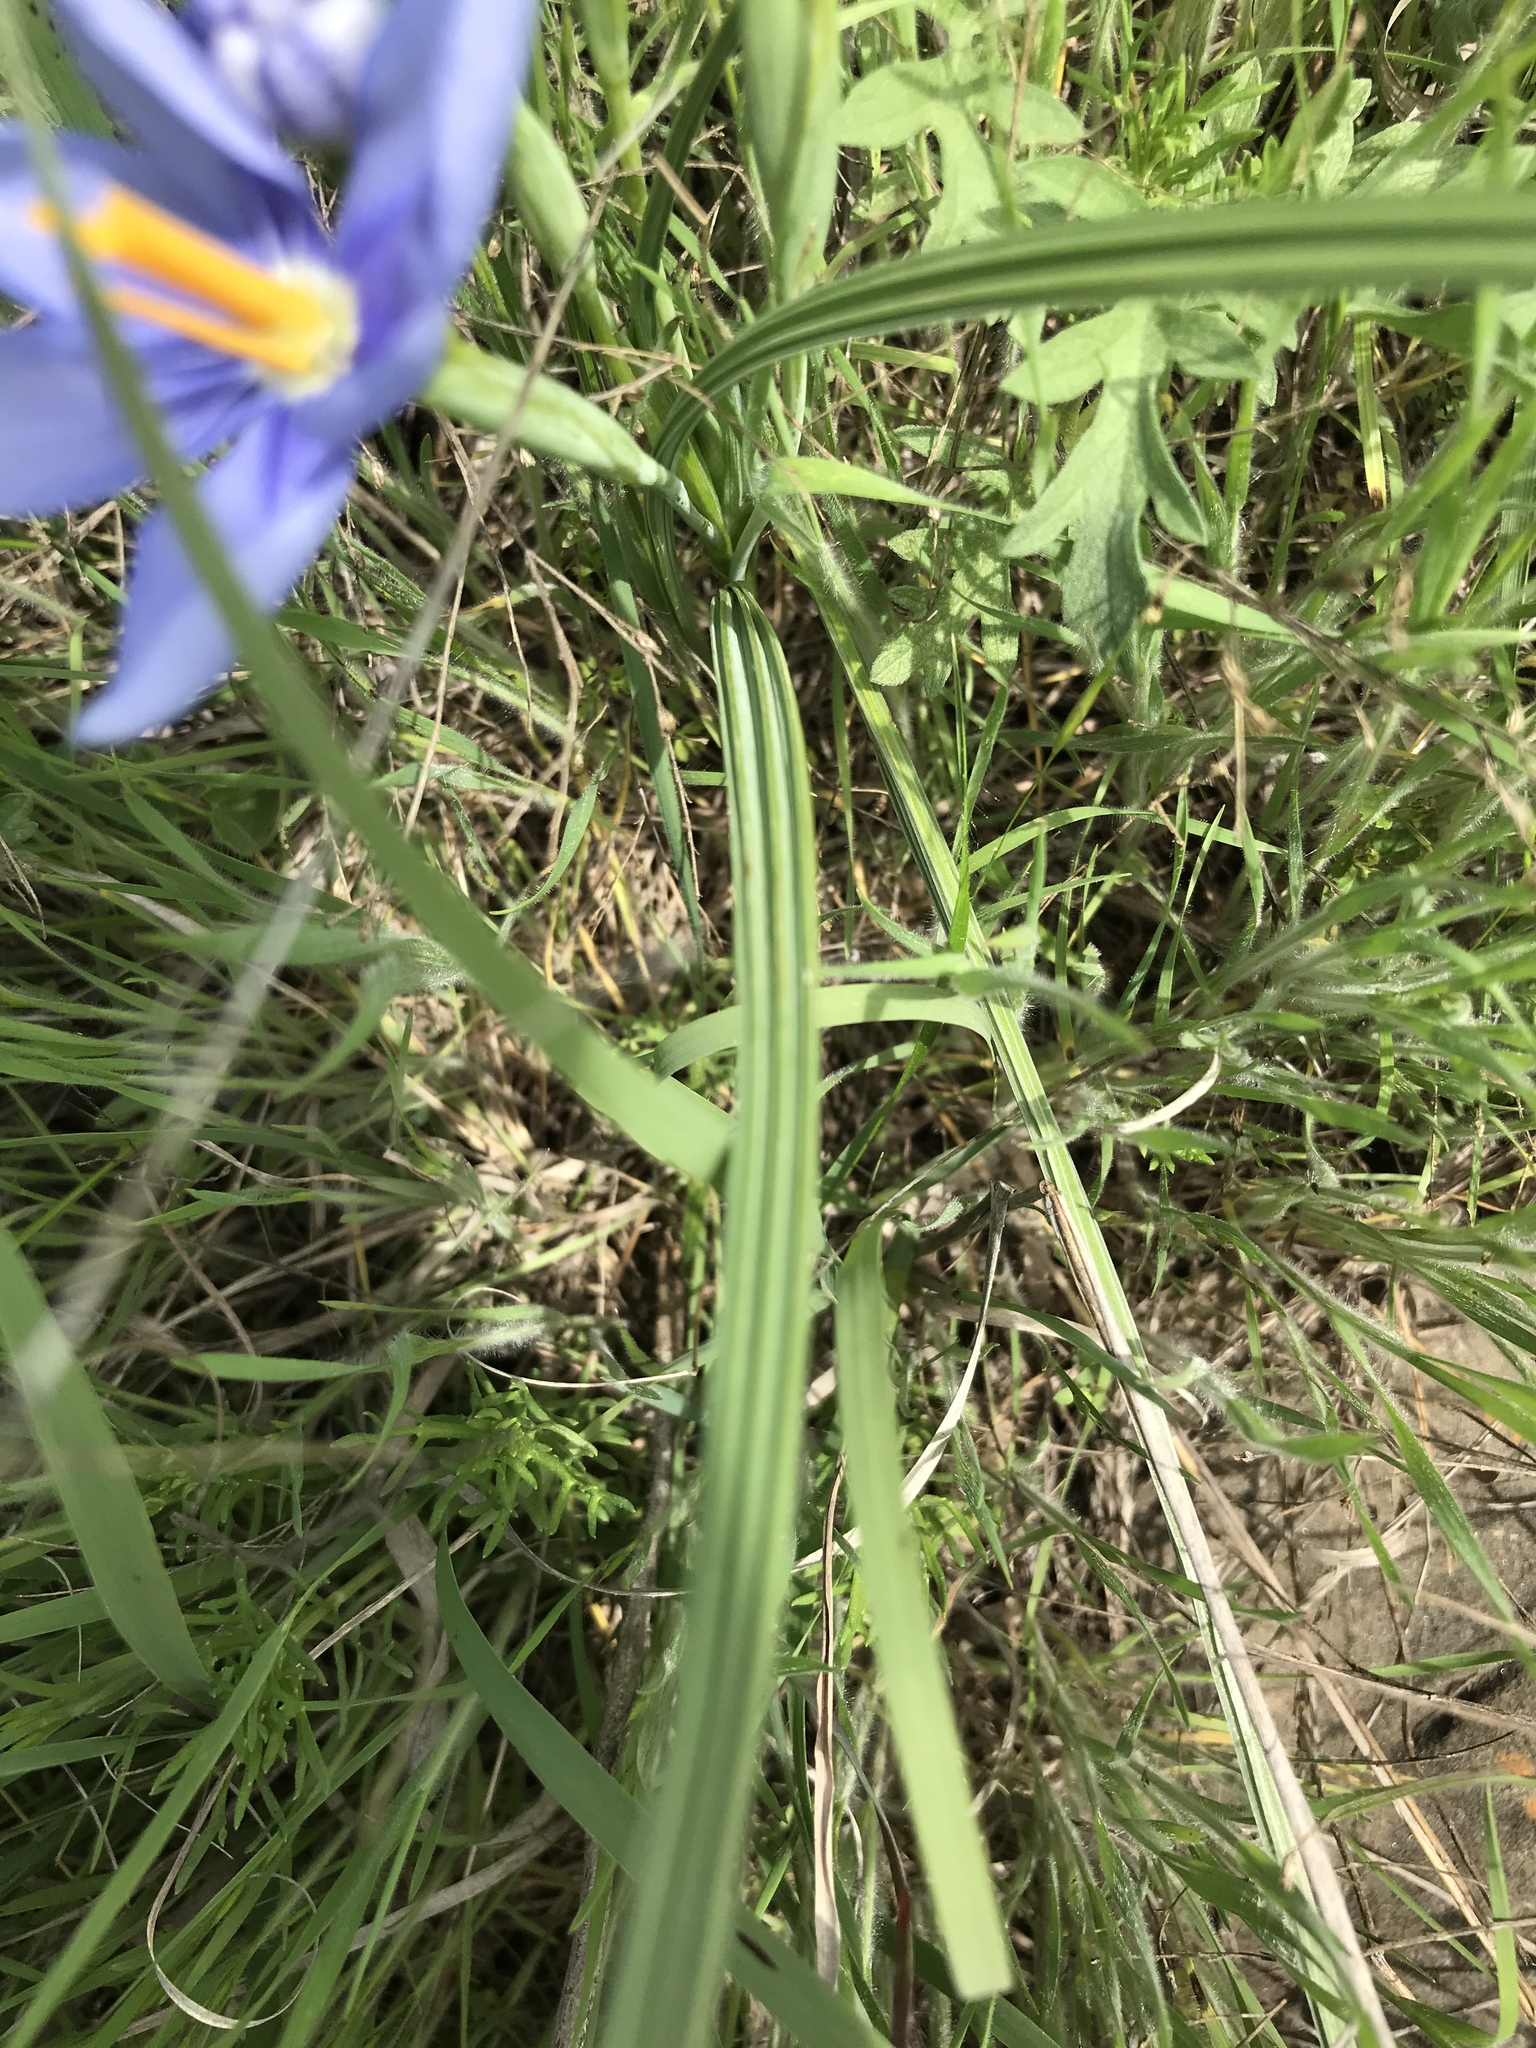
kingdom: Plantae
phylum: Tracheophyta
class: Liliopsida
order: Asparagales
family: Iridaceae
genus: Nemastylis
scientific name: Nemastylis geminiflora
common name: Prairie celestial
